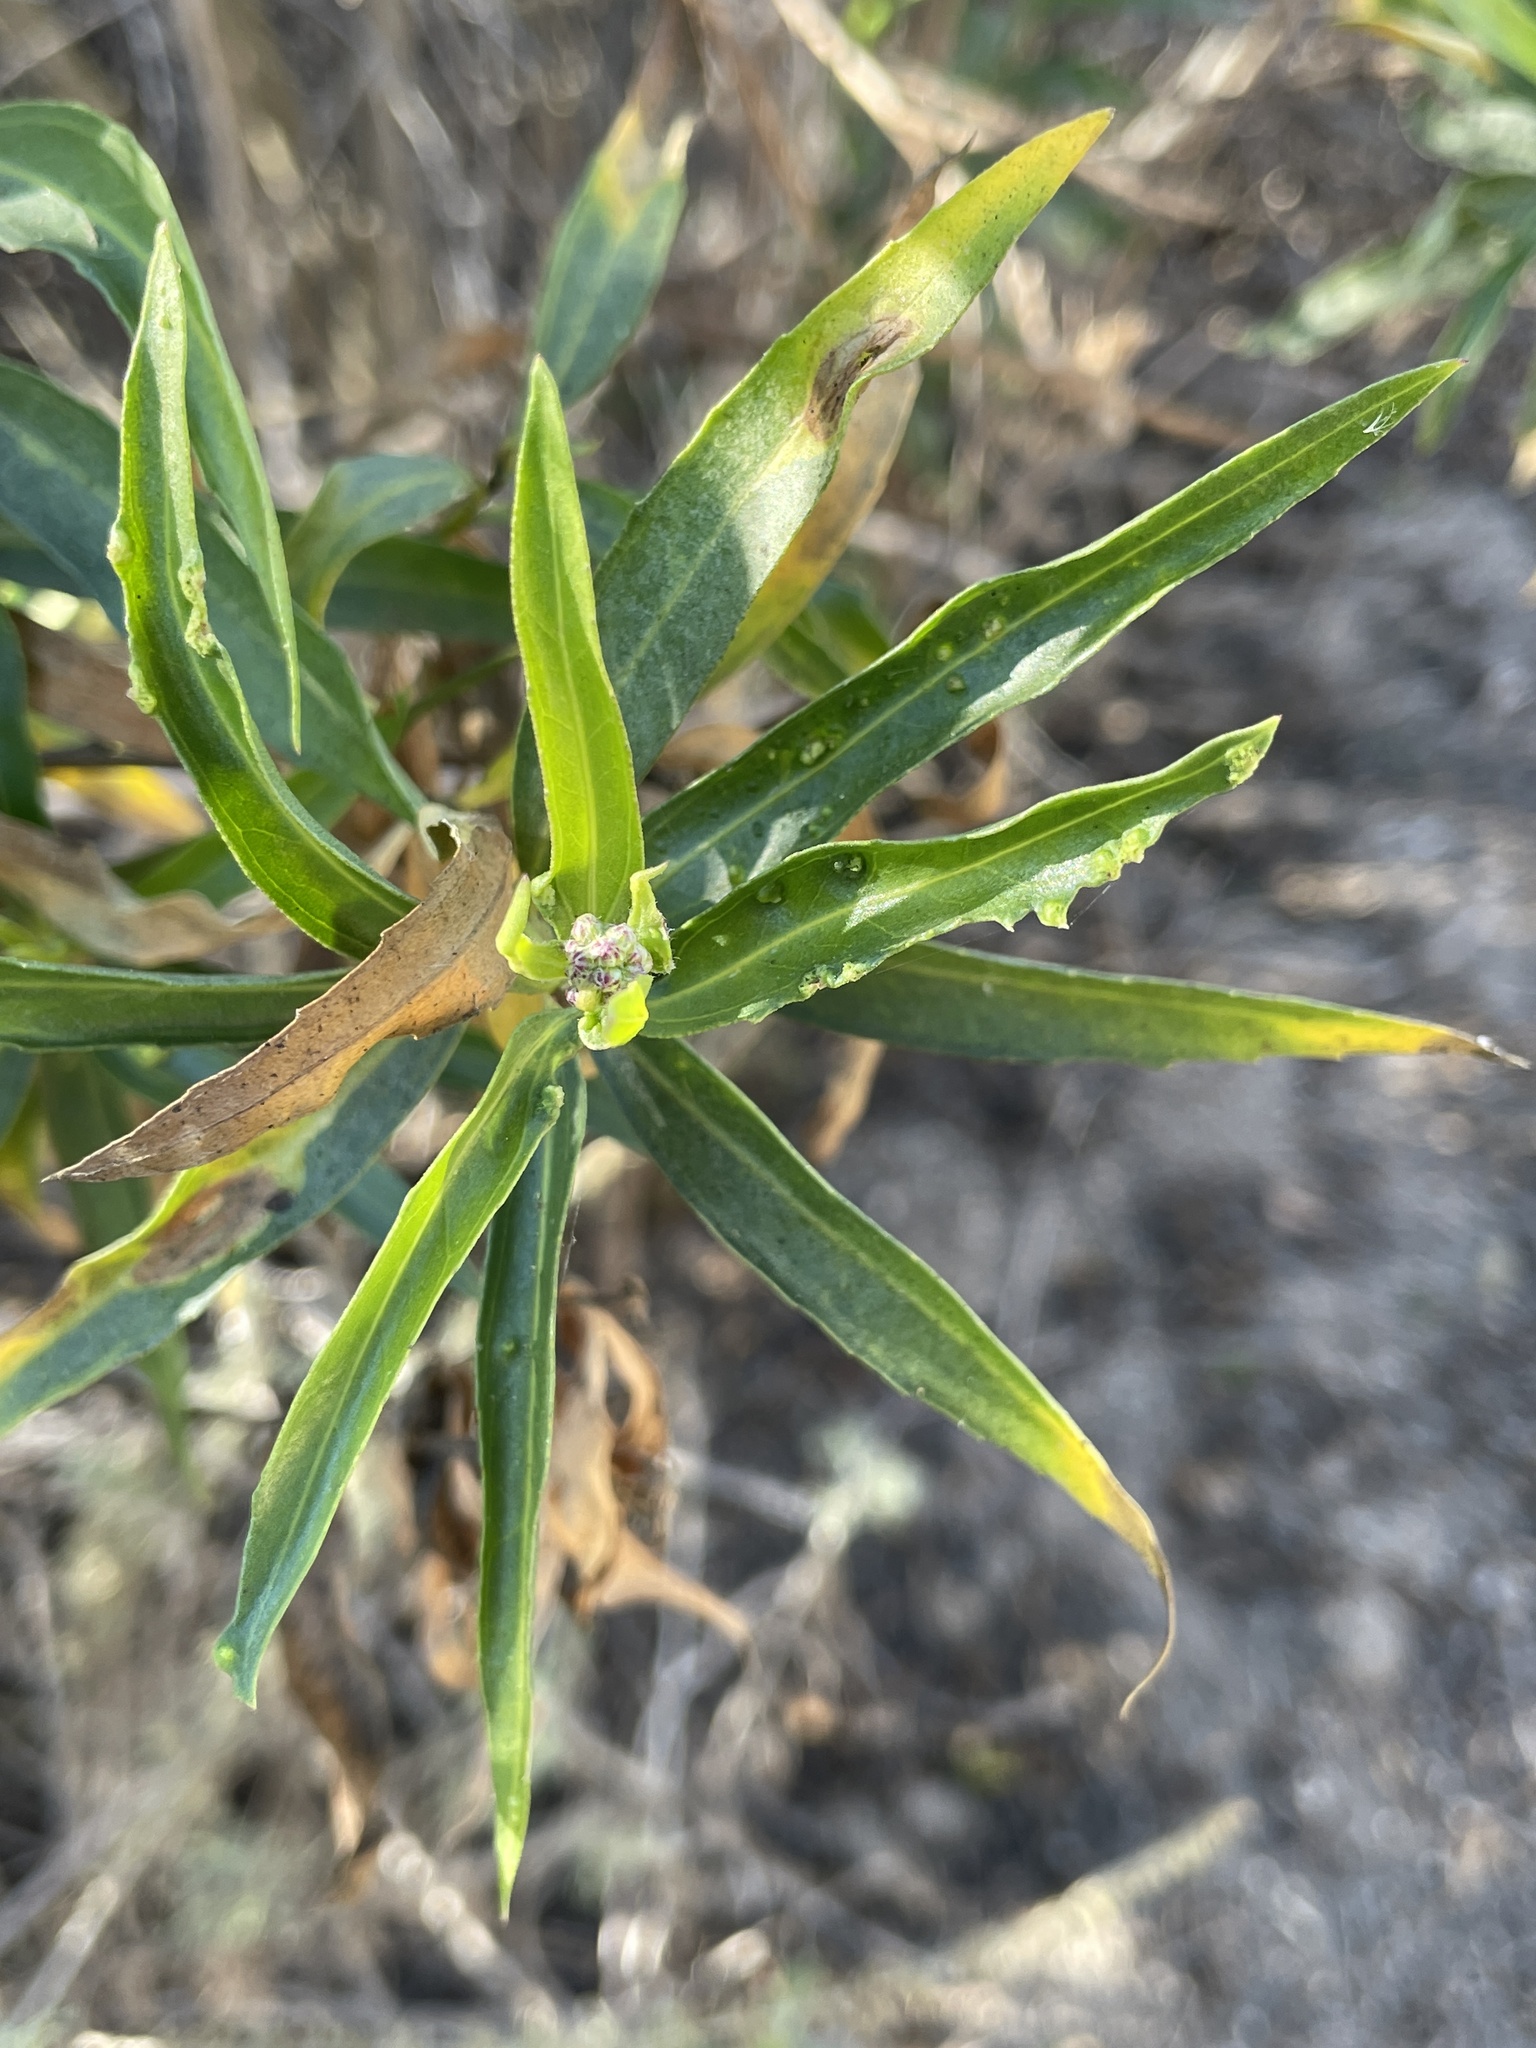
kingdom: Plantae
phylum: Tracheophyta
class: Magnoliopsida
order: Asterales
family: Asteraceae
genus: Baccharis
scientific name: Baccharis salicifolia
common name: Sticky baccharis
